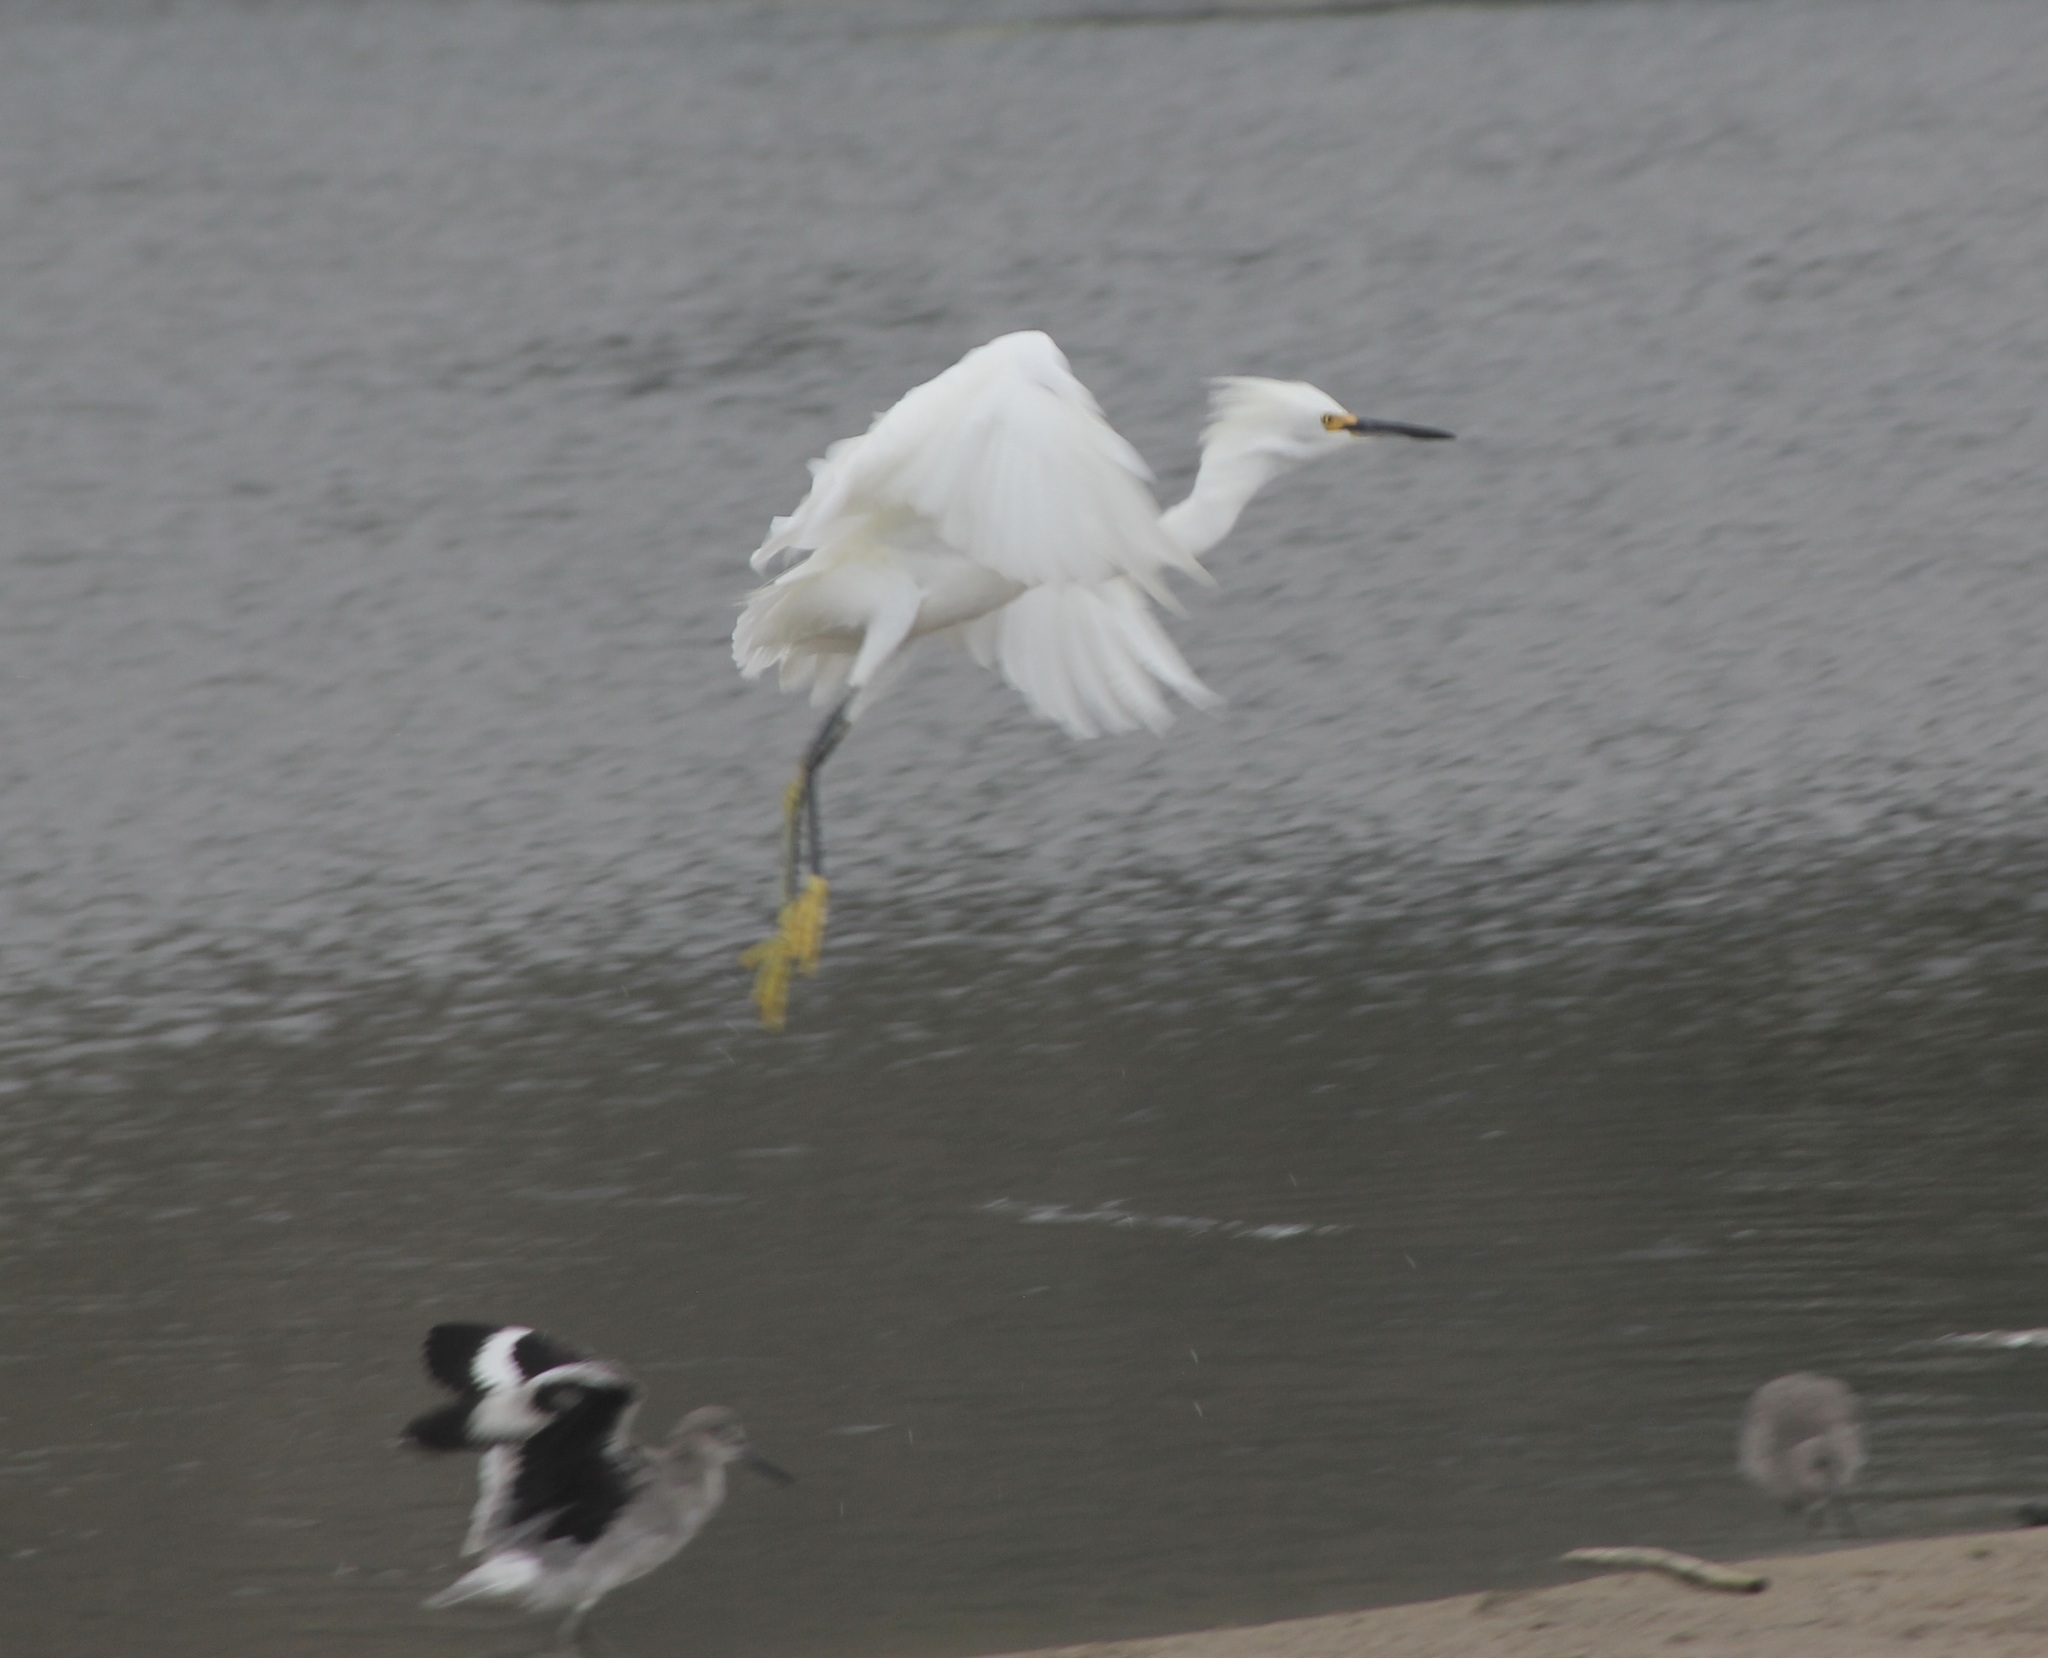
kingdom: Animalia
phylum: Chordata
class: Aves
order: Pelecaniformes
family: Ardeidae
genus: Egretta
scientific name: Egretta thula
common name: Snowy egret
